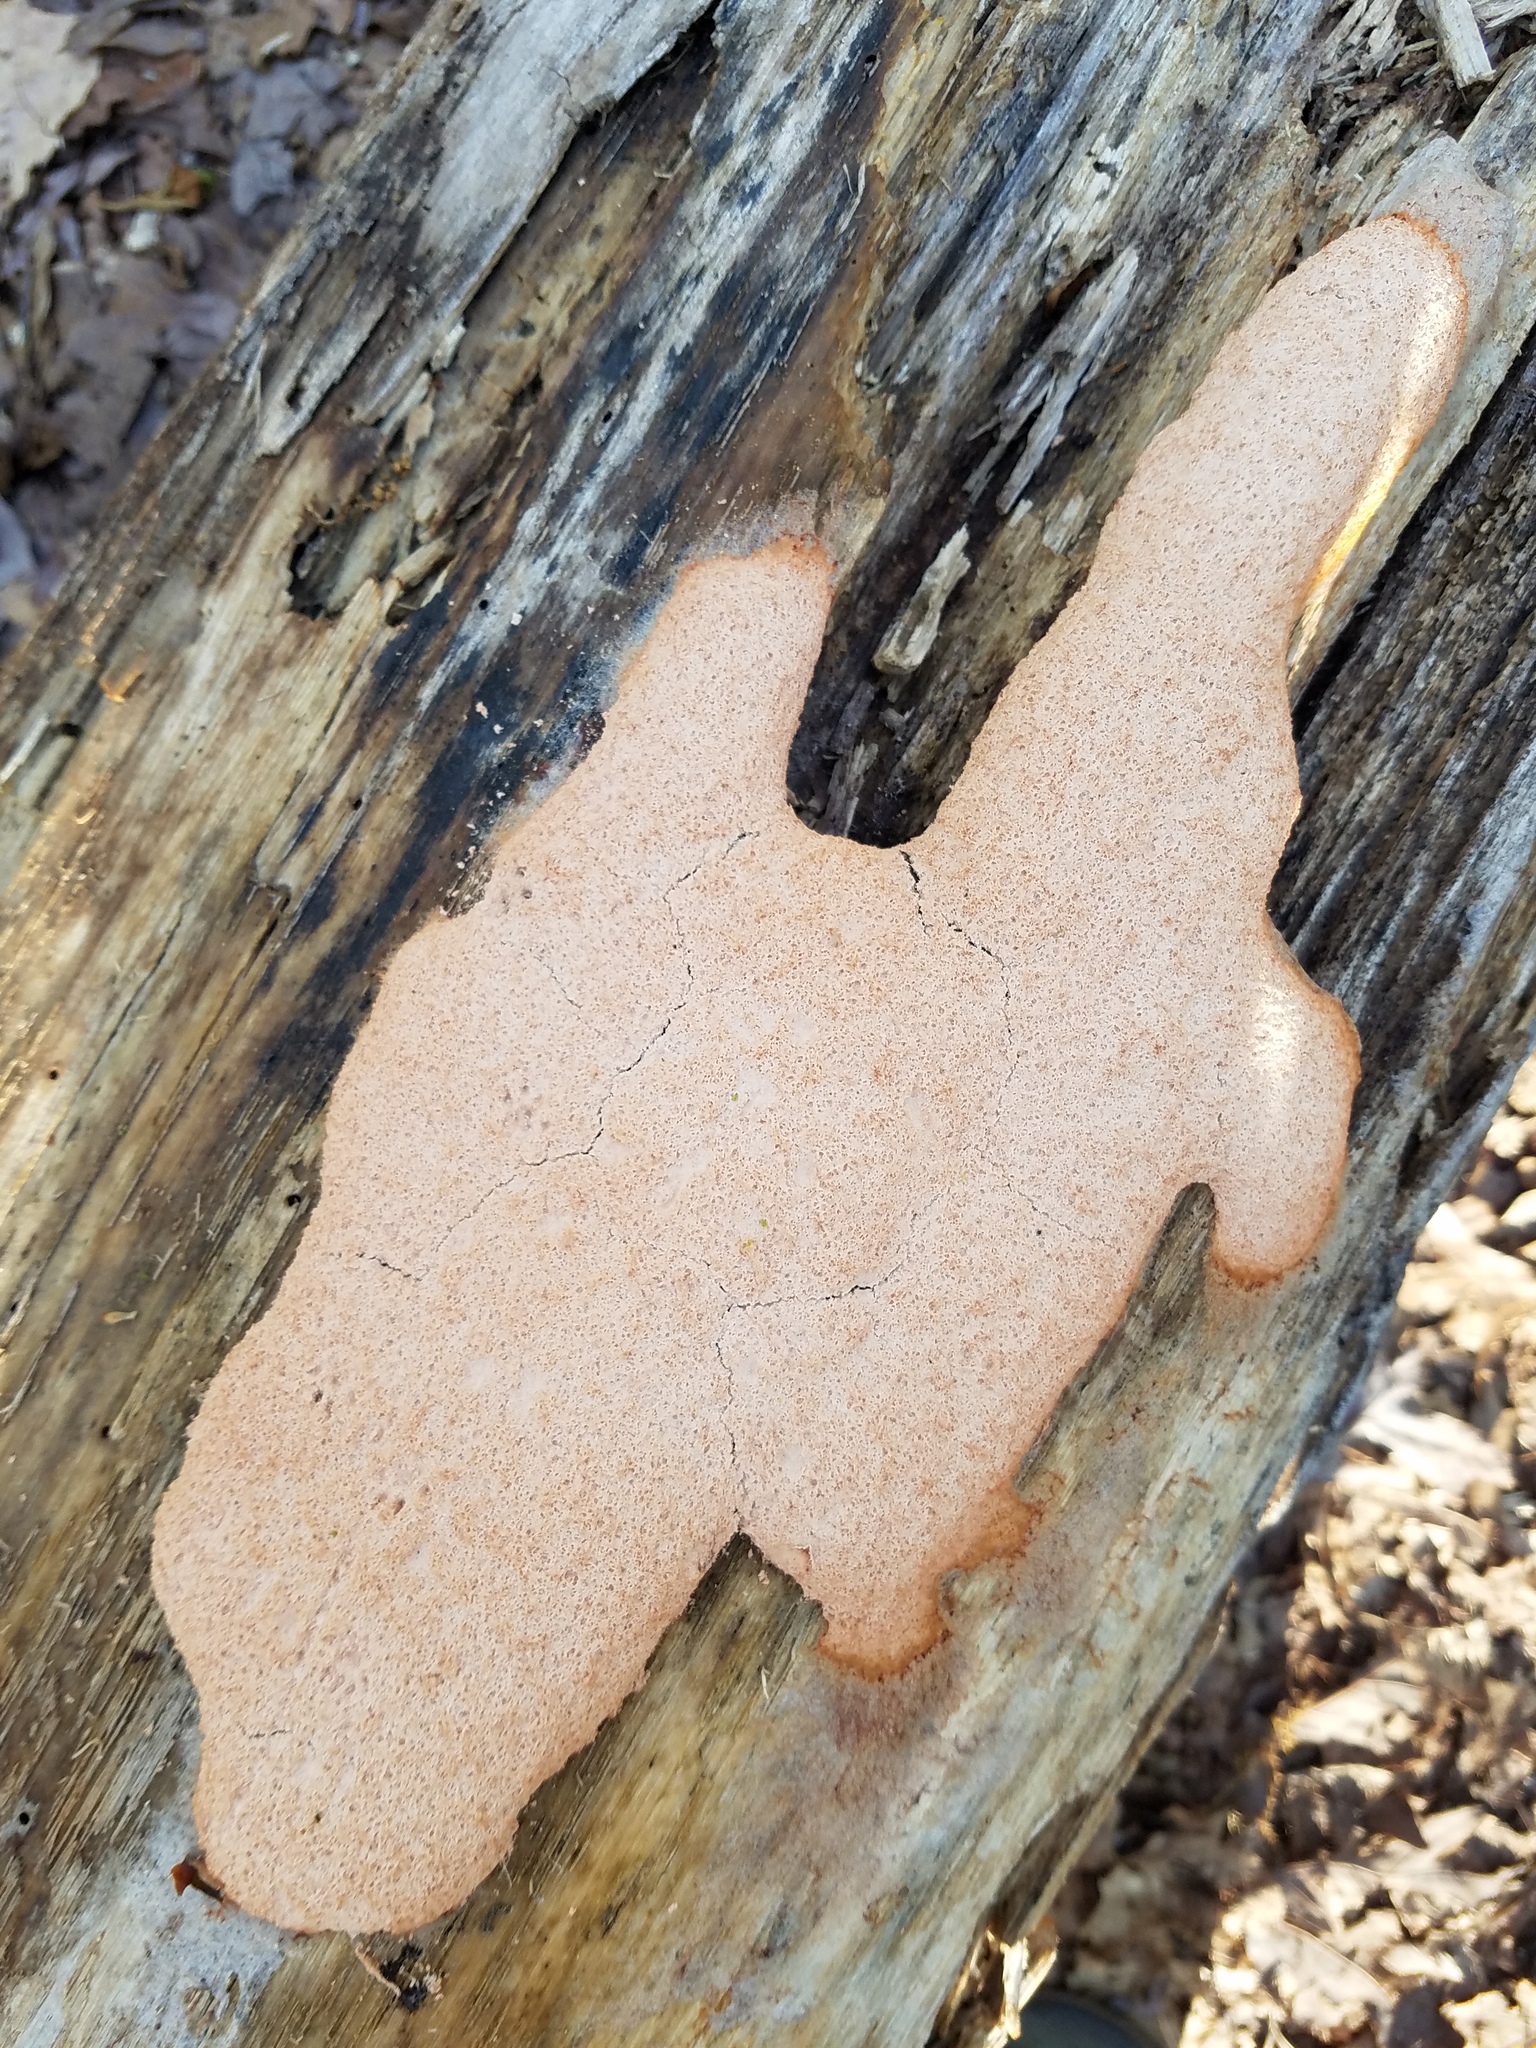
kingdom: Protozoa
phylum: Mycetozoa
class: Myxomycetes
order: Physarales
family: Physaraceae
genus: Fuligo
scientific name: Fuligo septica
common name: Dog vomit slime mold
